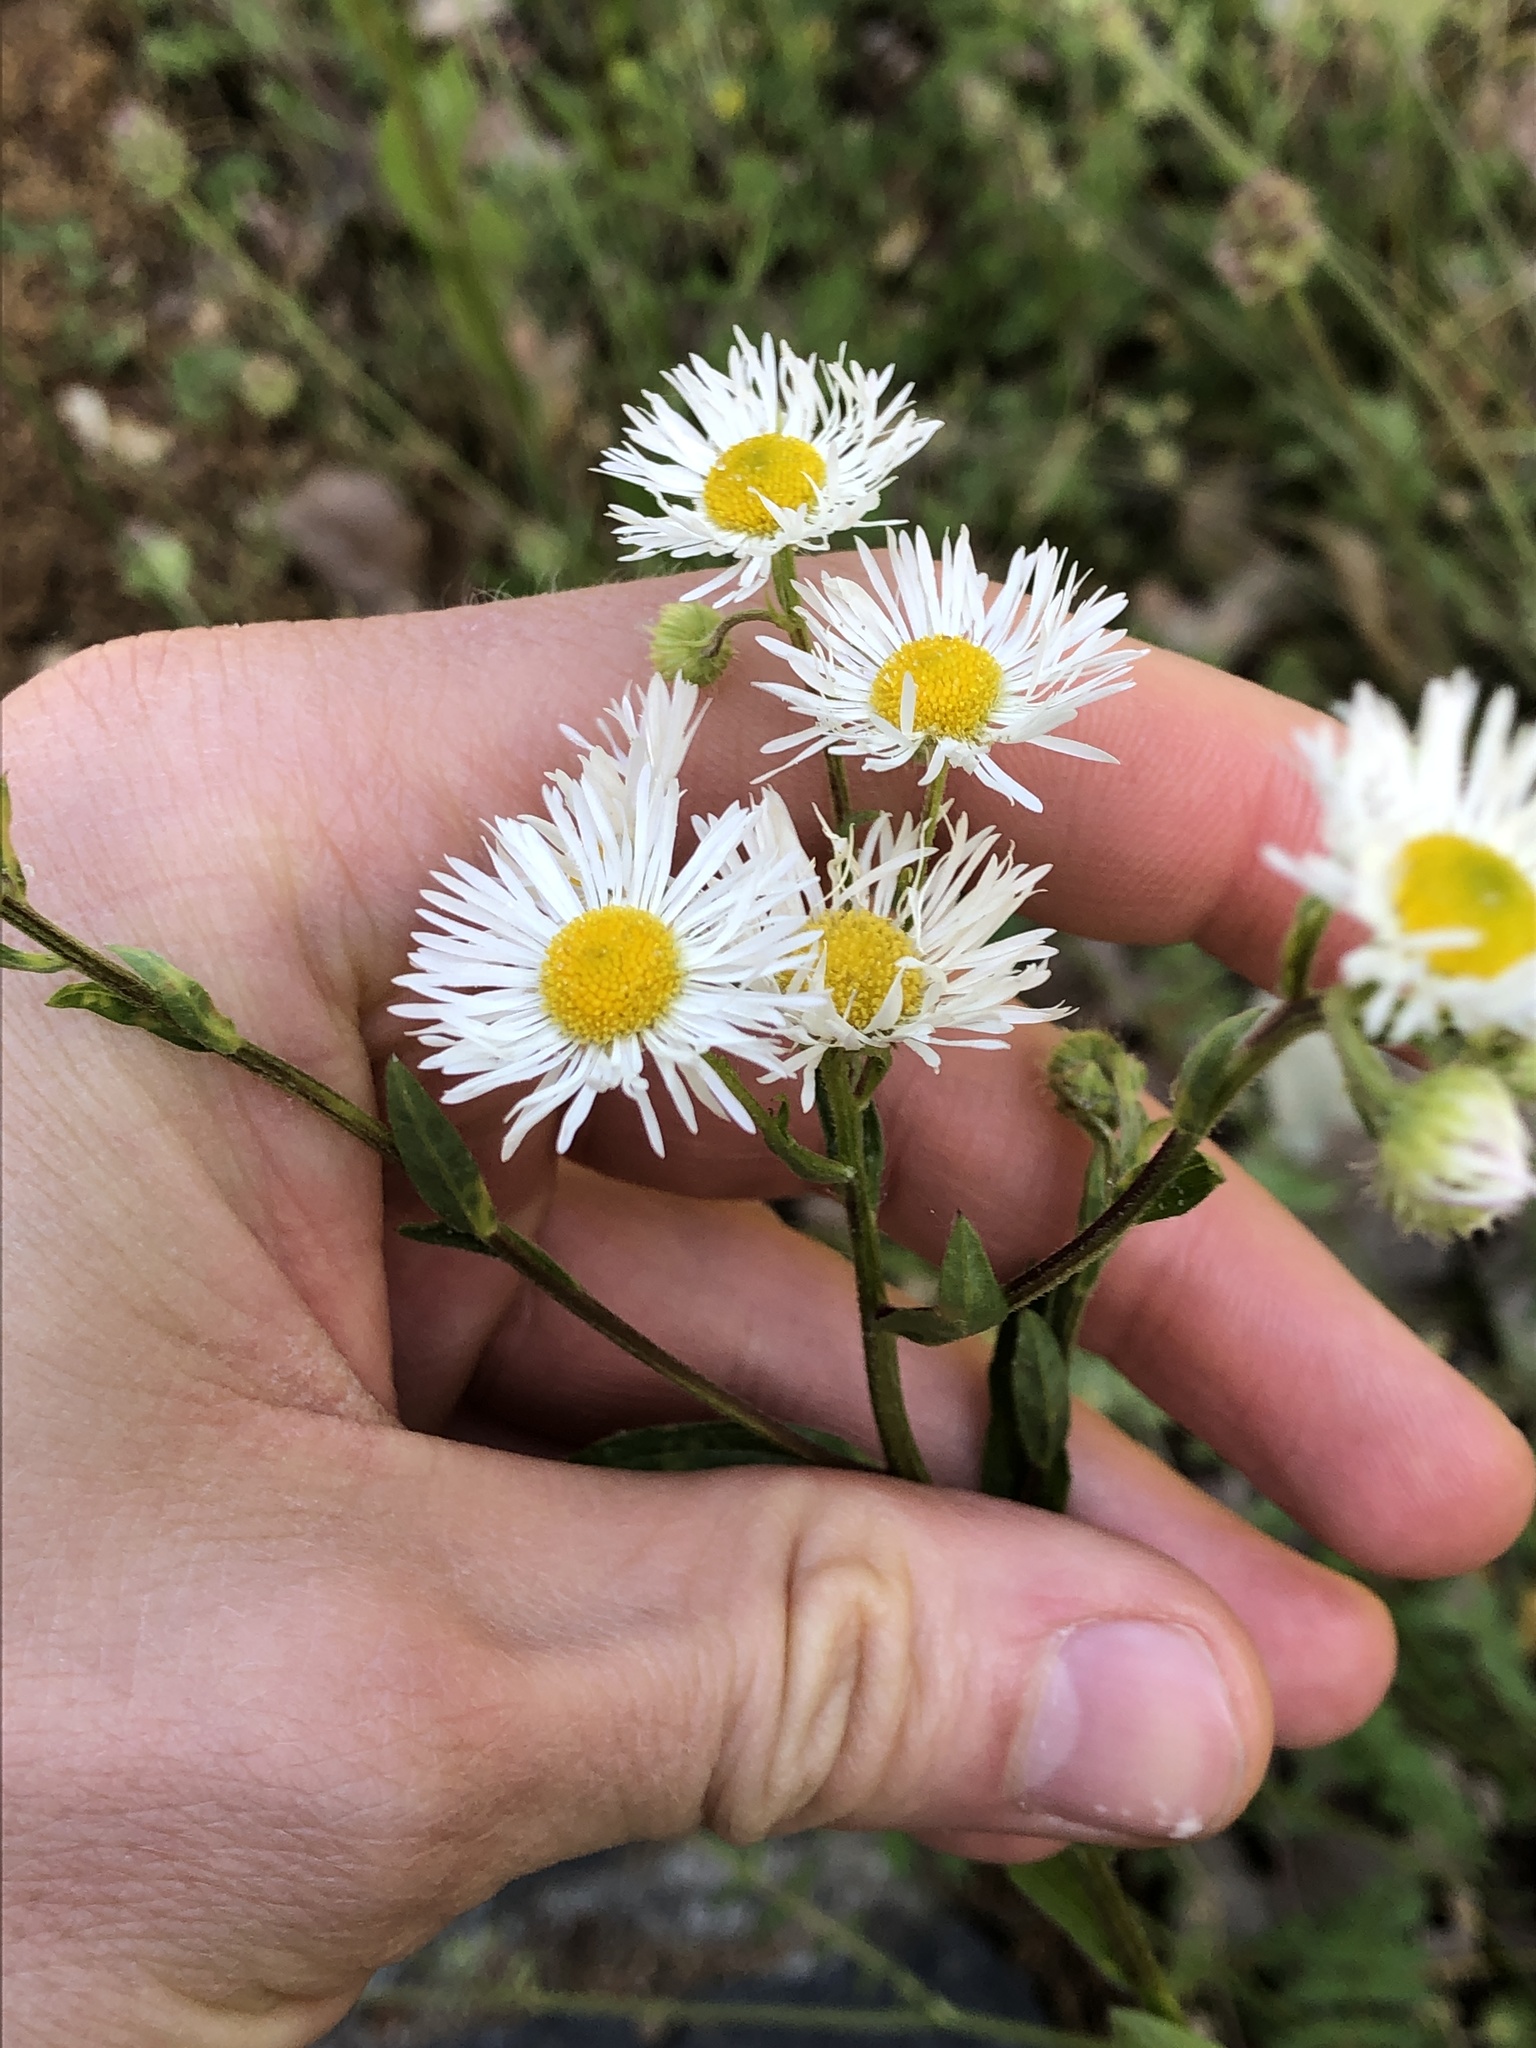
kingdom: Plantae
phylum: Tracheophyta
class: Magnoliopsida
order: Asterales
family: Asteraceae
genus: Erigeron
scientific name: Erigeron annuus
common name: Tall fleabane
